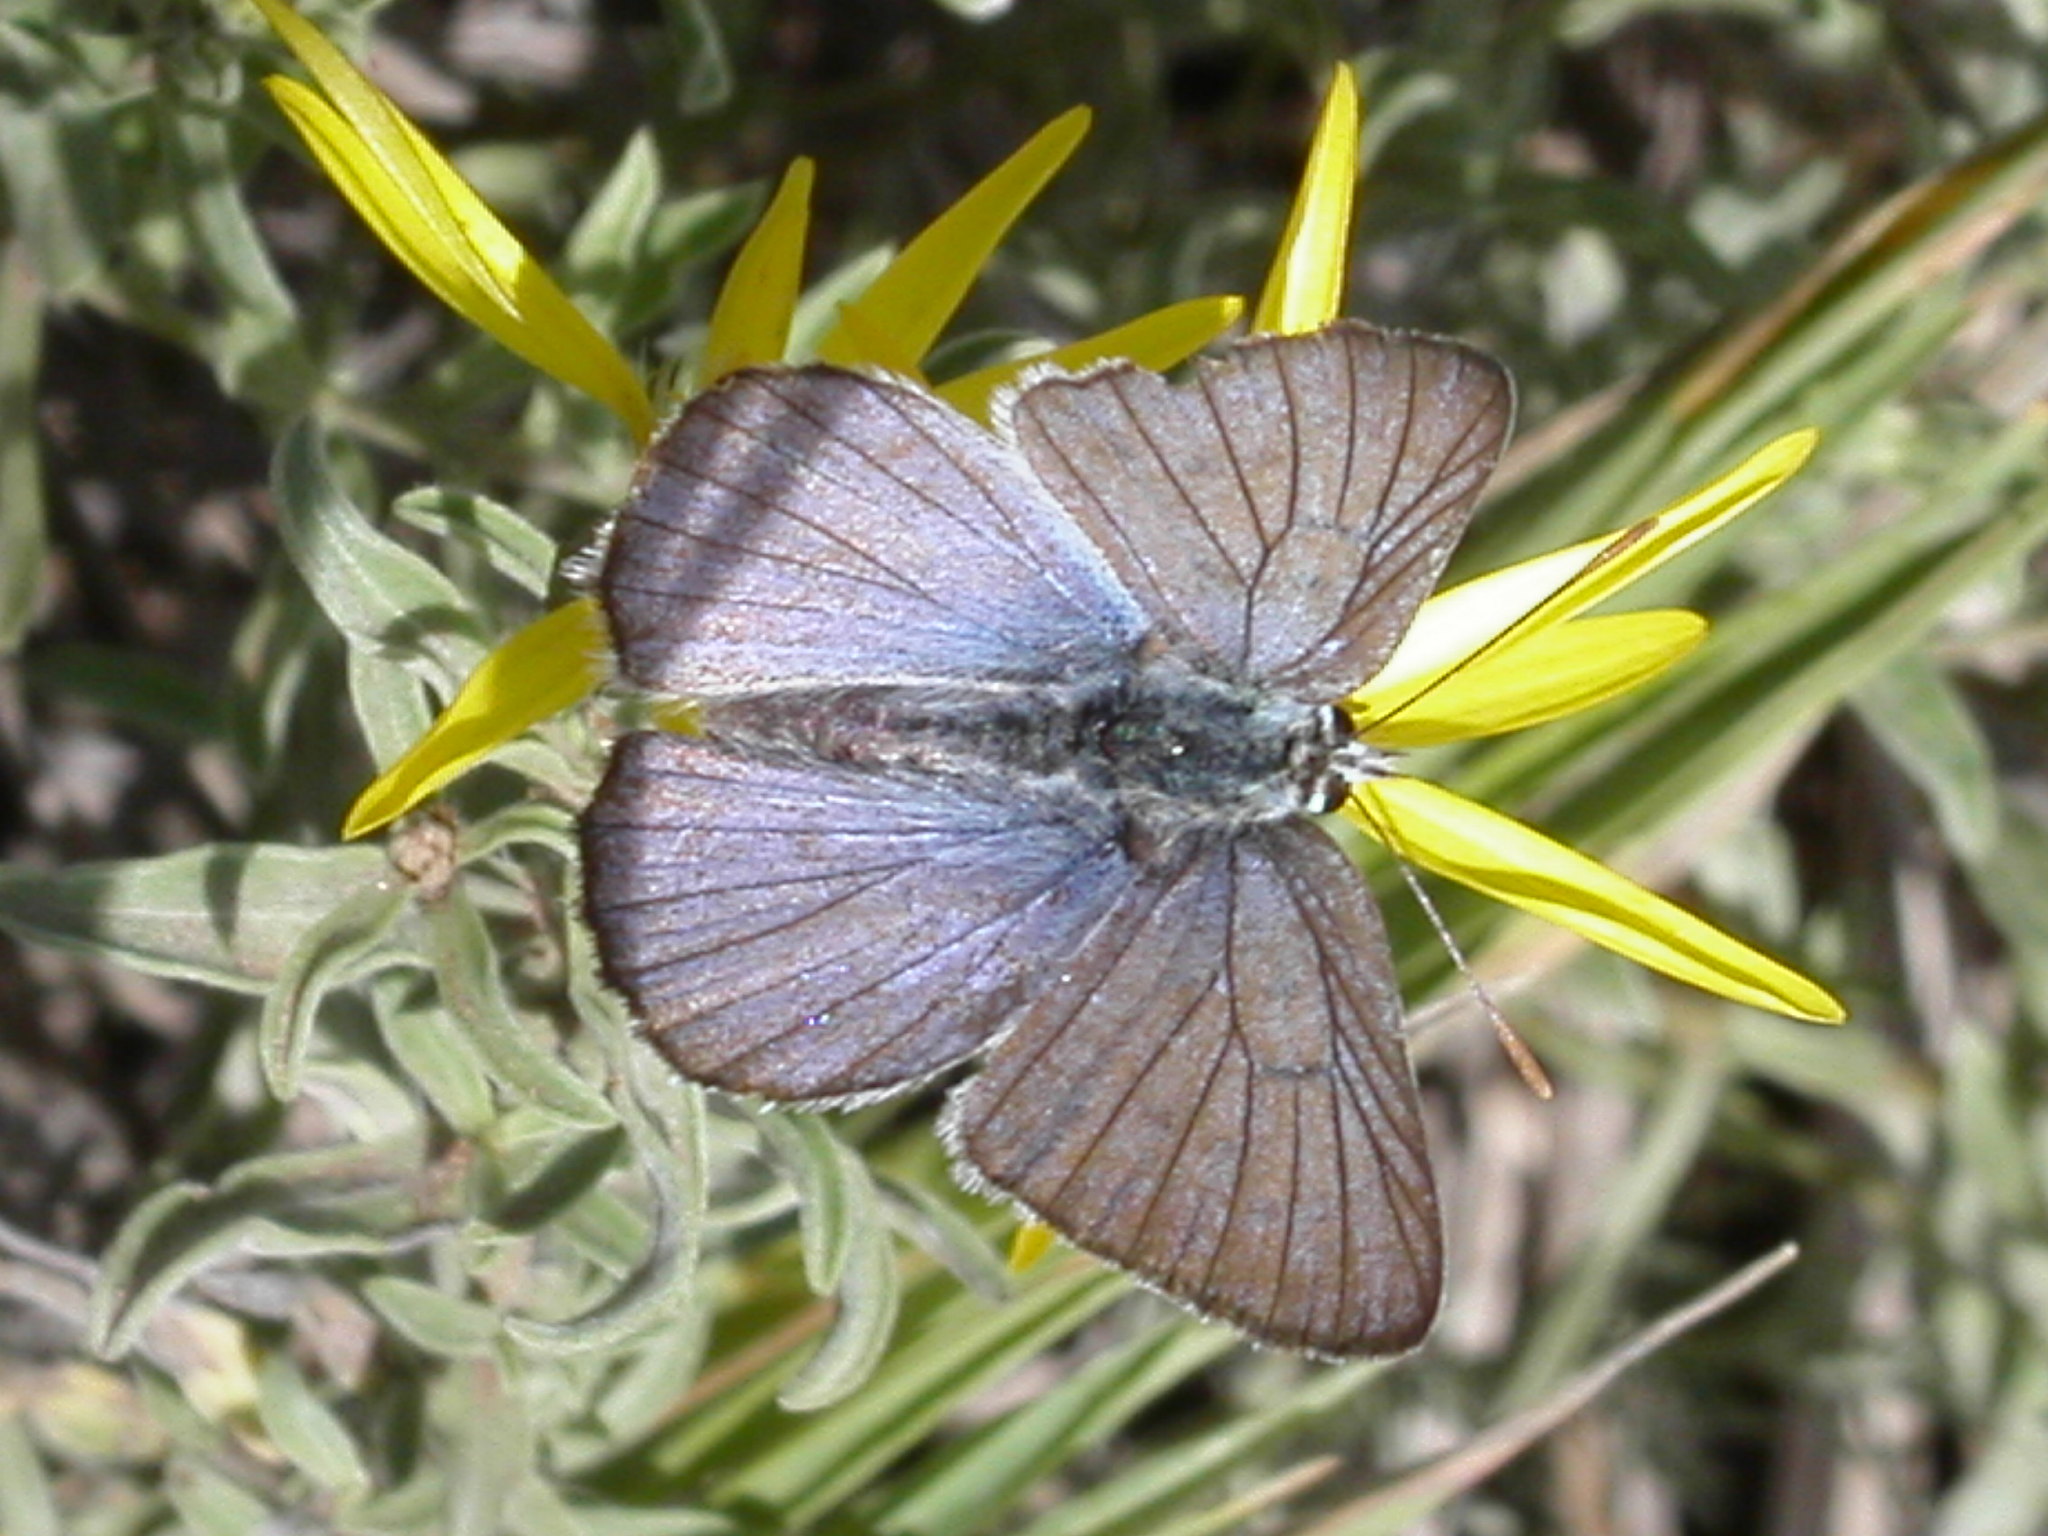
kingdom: Animalia
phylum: Arthropoda
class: Insecta
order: Lepidoptera
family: Lycaenidae
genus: Tharsalea
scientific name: Tharsalea heteronea
